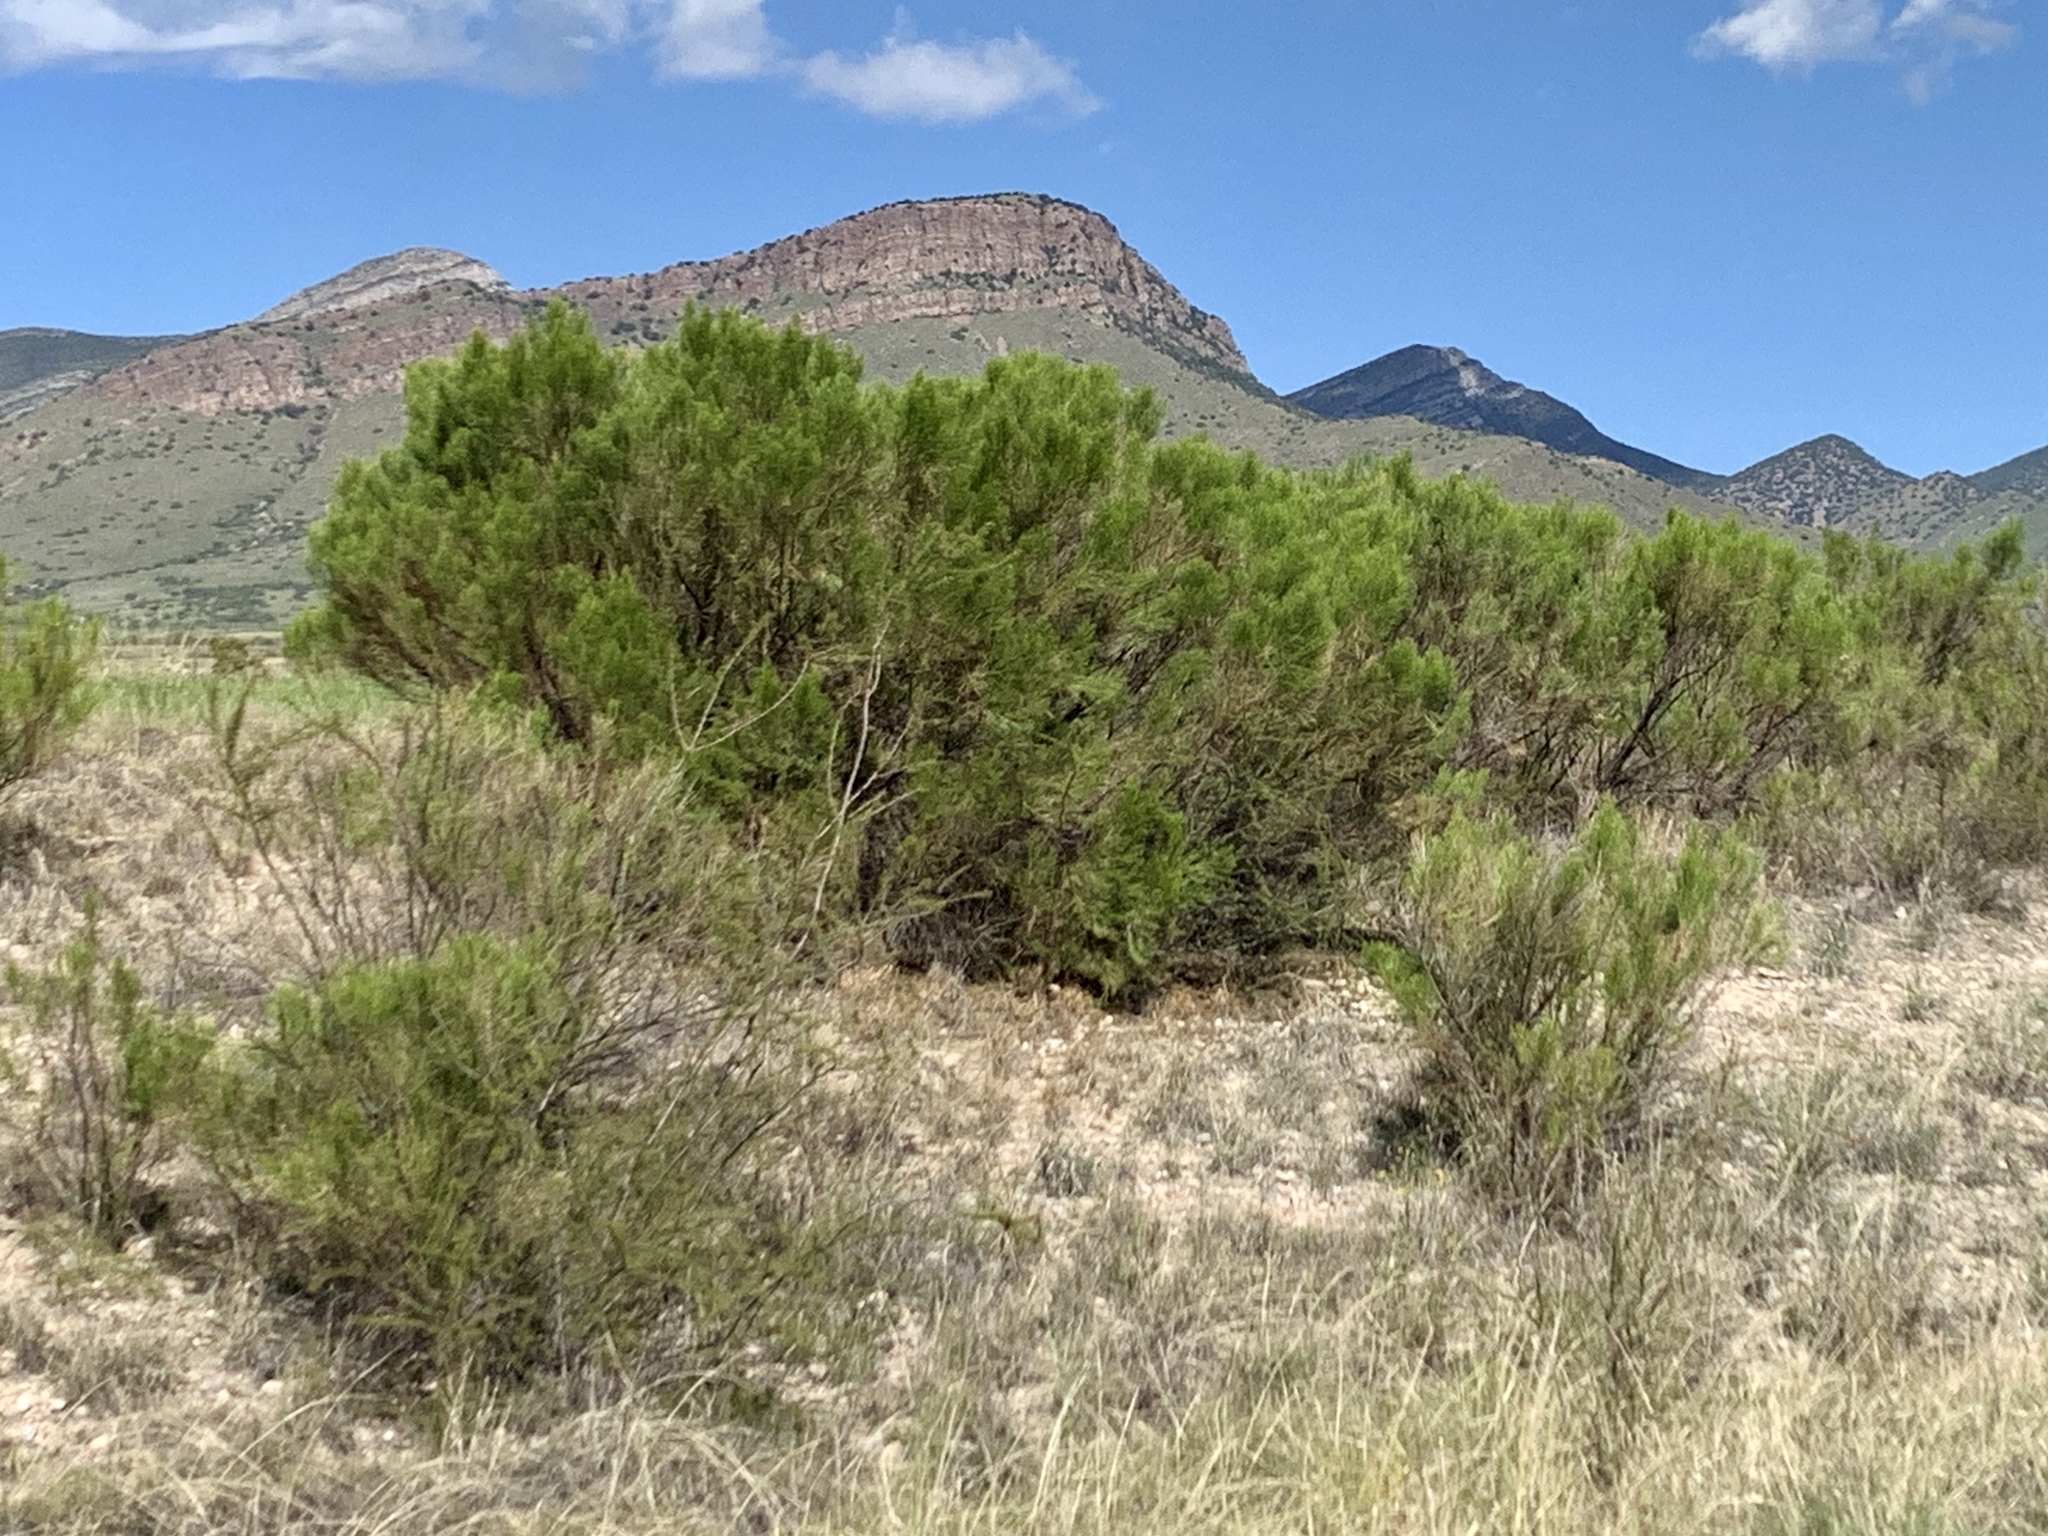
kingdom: Plantae
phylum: Tracheophyta
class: Magnoliopsida
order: Asterales
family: Asteraceae
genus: Baccharis
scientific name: Baccharis sarothroides
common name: Desert-broom
